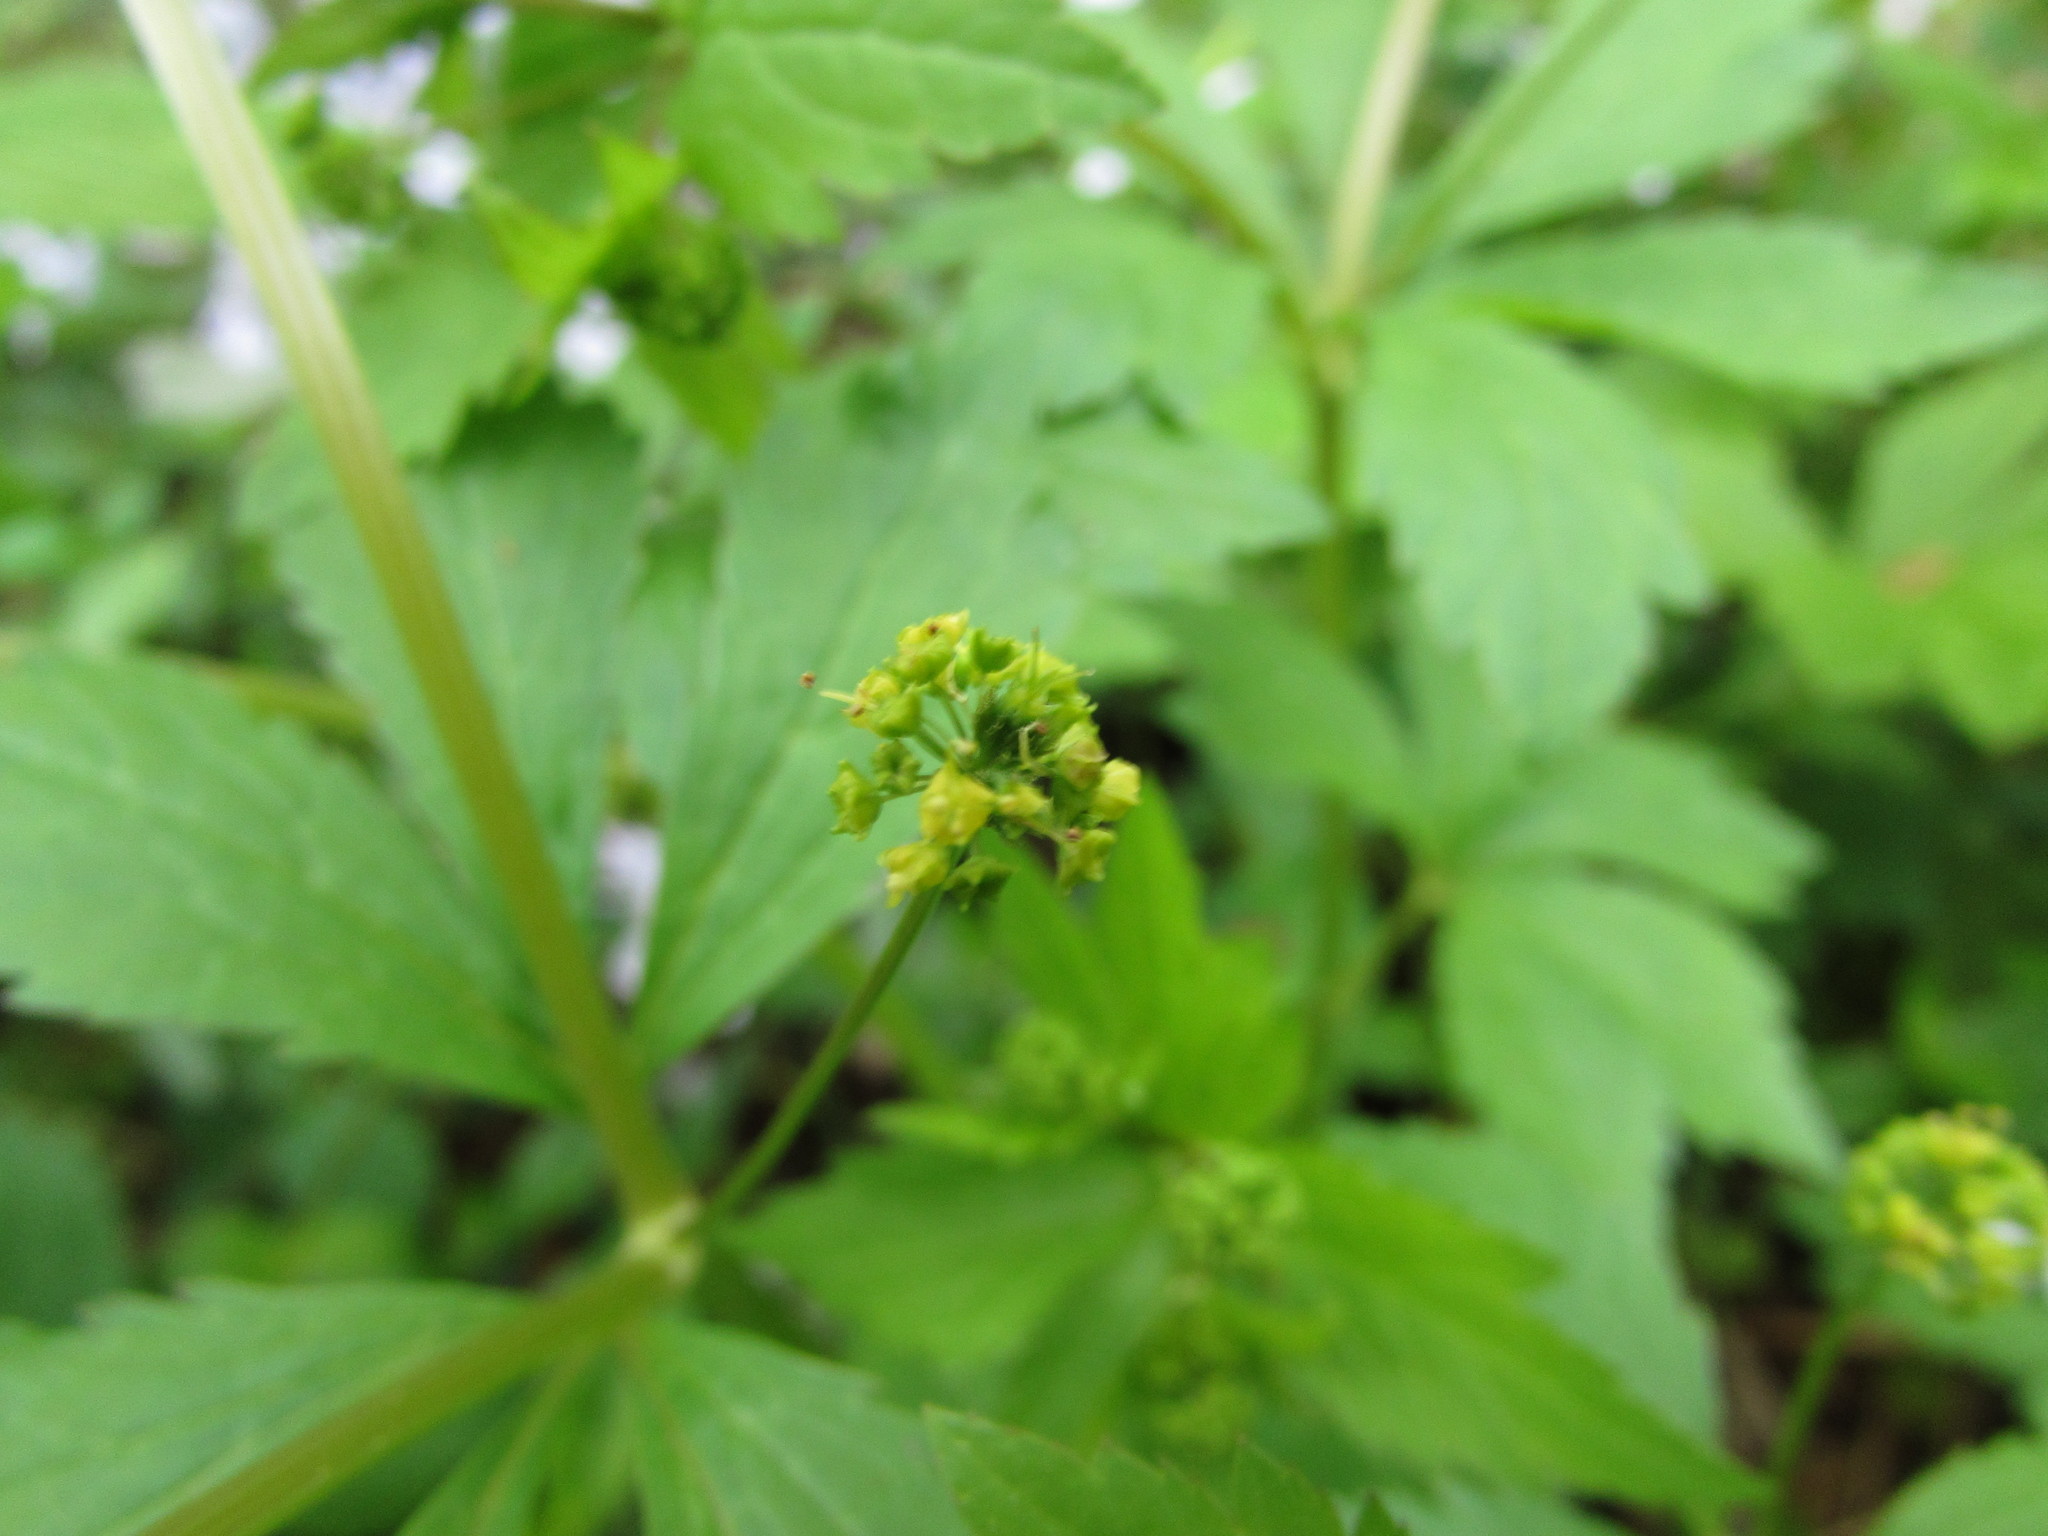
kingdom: Plantae
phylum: Tracheophyta
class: Magnoliopsida
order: Apiales
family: Apiaceae
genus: Sanicula
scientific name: Sanicula
